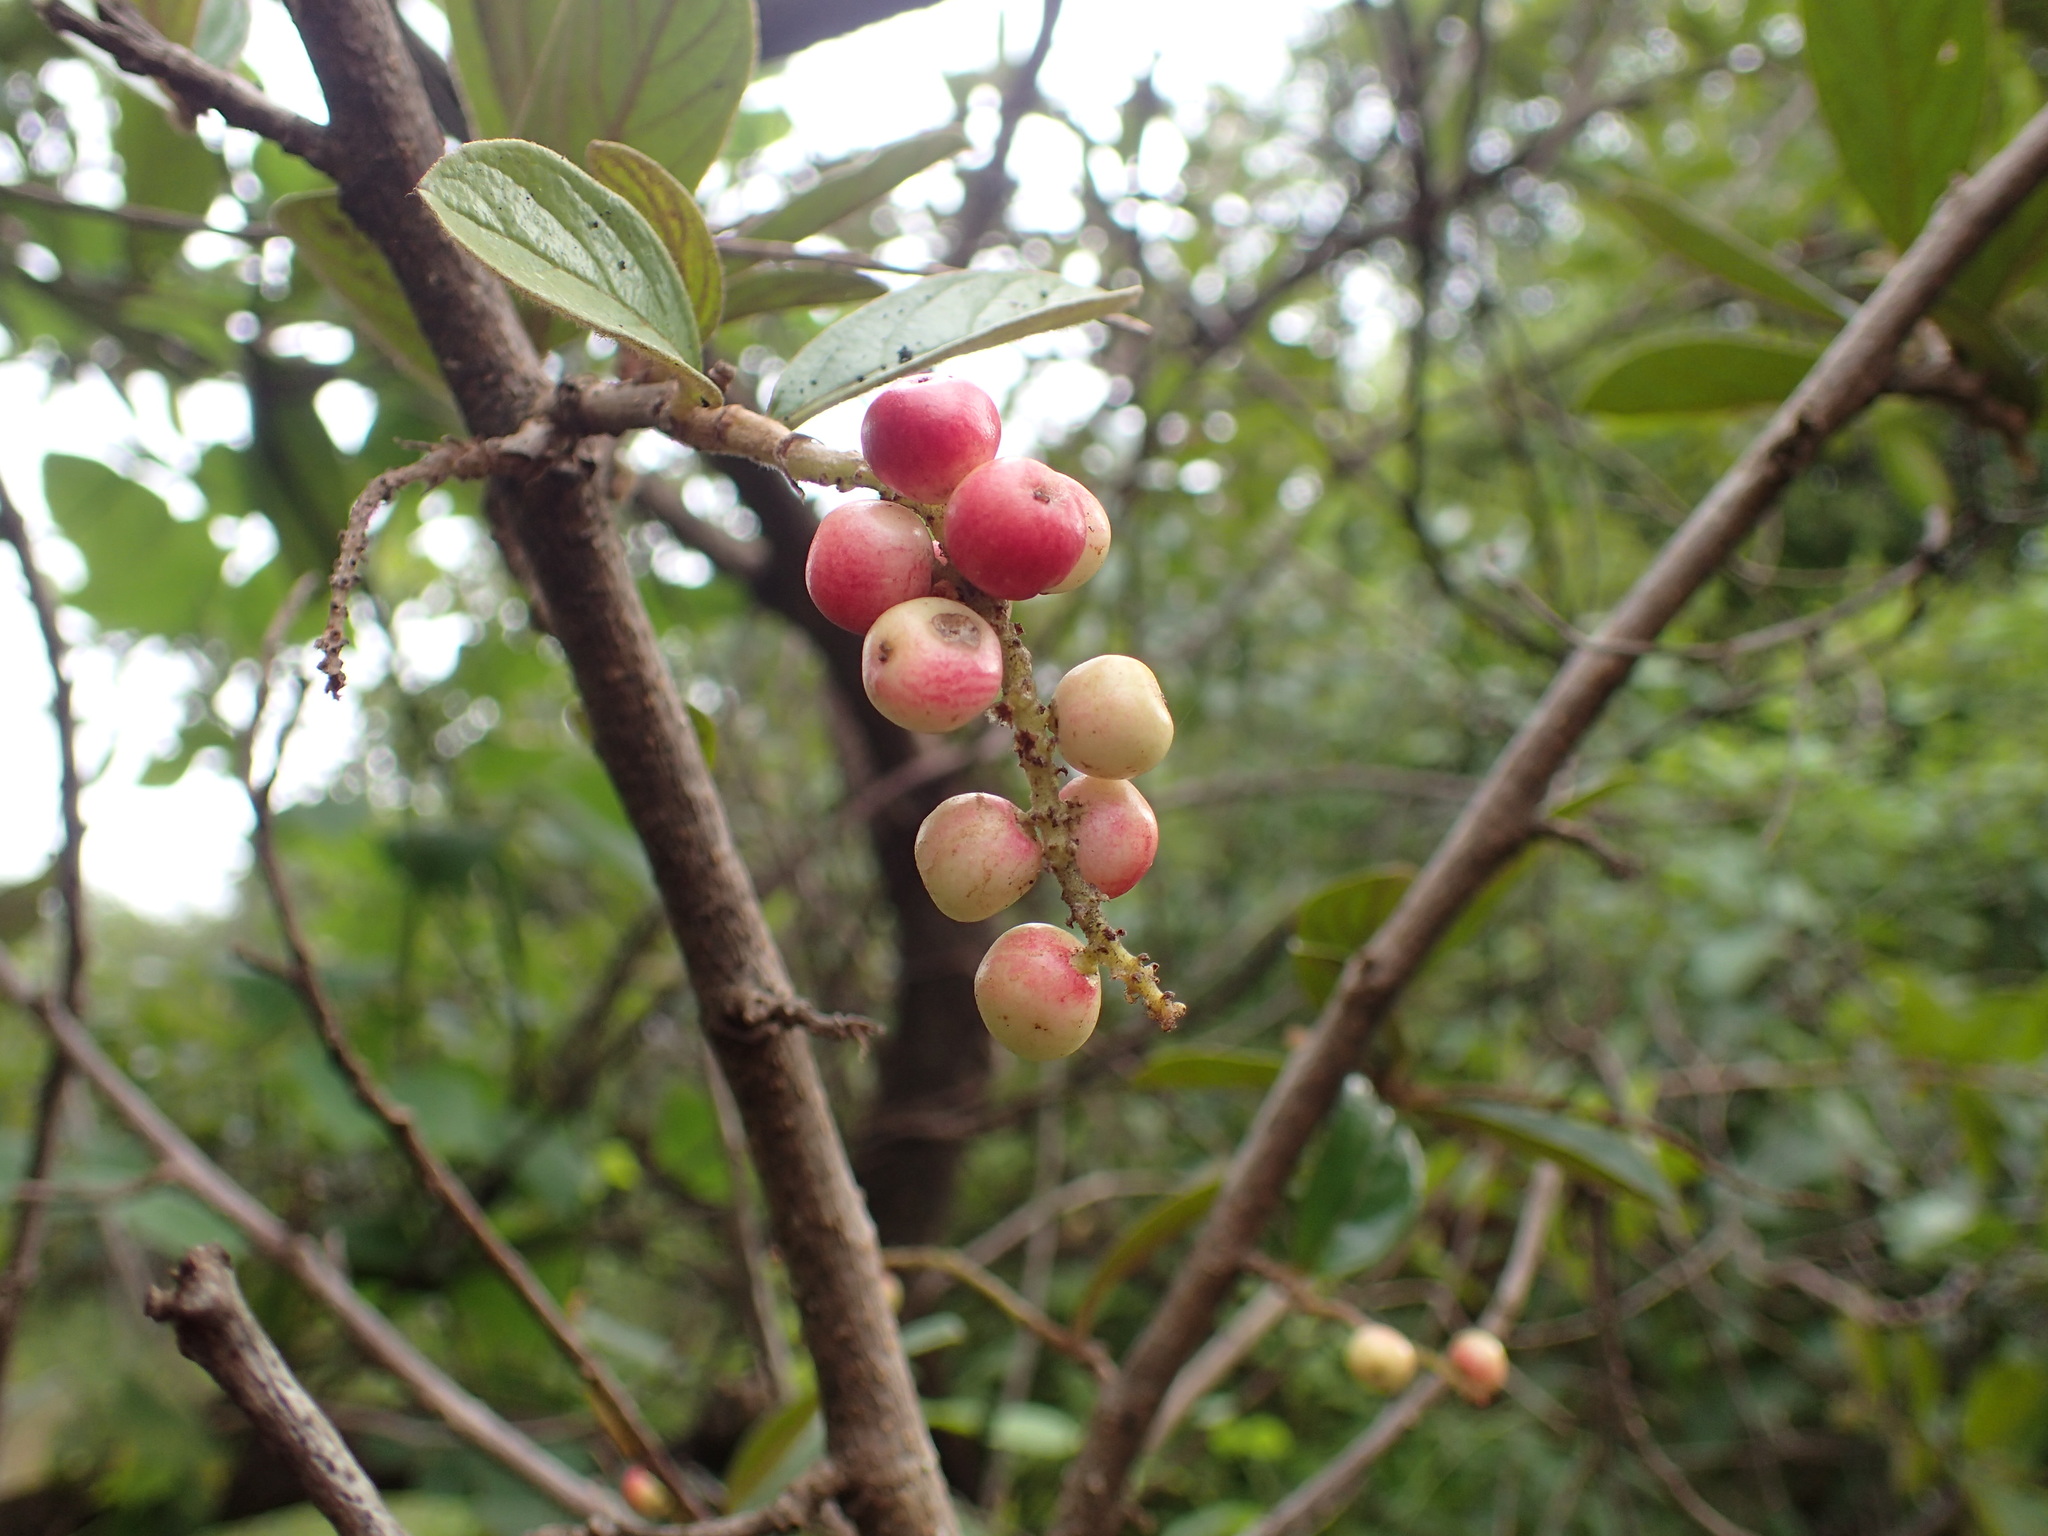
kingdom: Plantae
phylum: Tracheophyta
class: Magnoliopsida
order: Malpighiales
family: Phyllanthaceae
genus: Antidesma
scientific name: Antidesma venosum
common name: Tassel-berry
